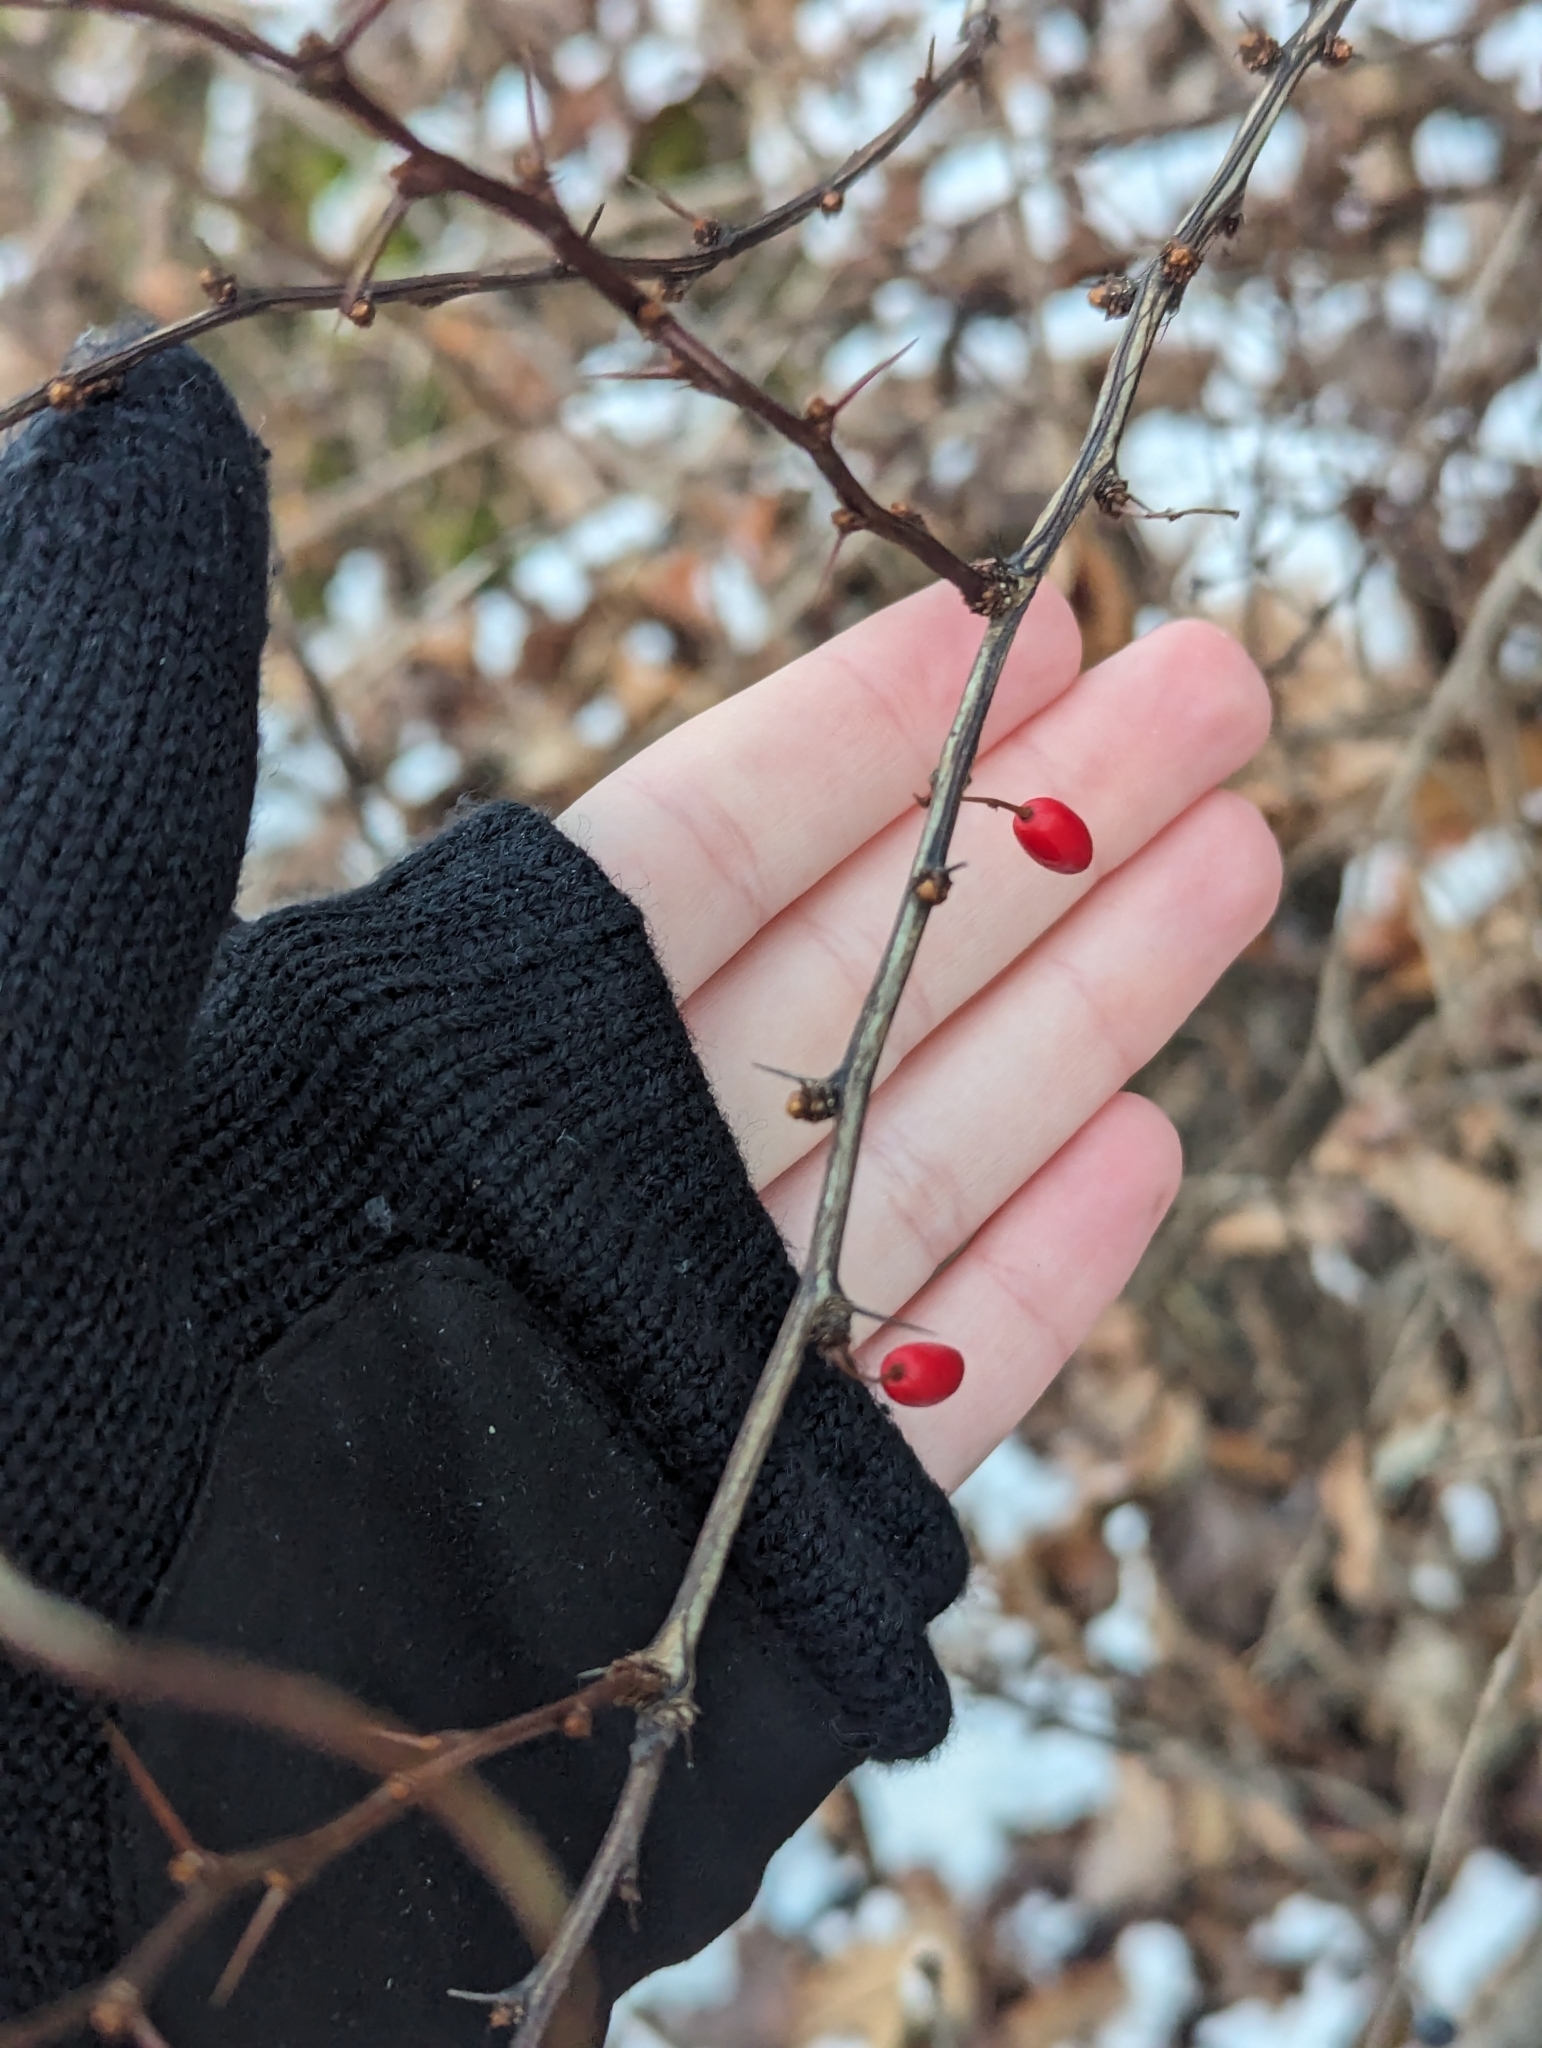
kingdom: Plantae
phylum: Tracheophyta
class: Magnoliopsida
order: Ranunculales
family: Berberidaceae
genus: Berberis
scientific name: Berberis thunbergii
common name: Japanese barberry
